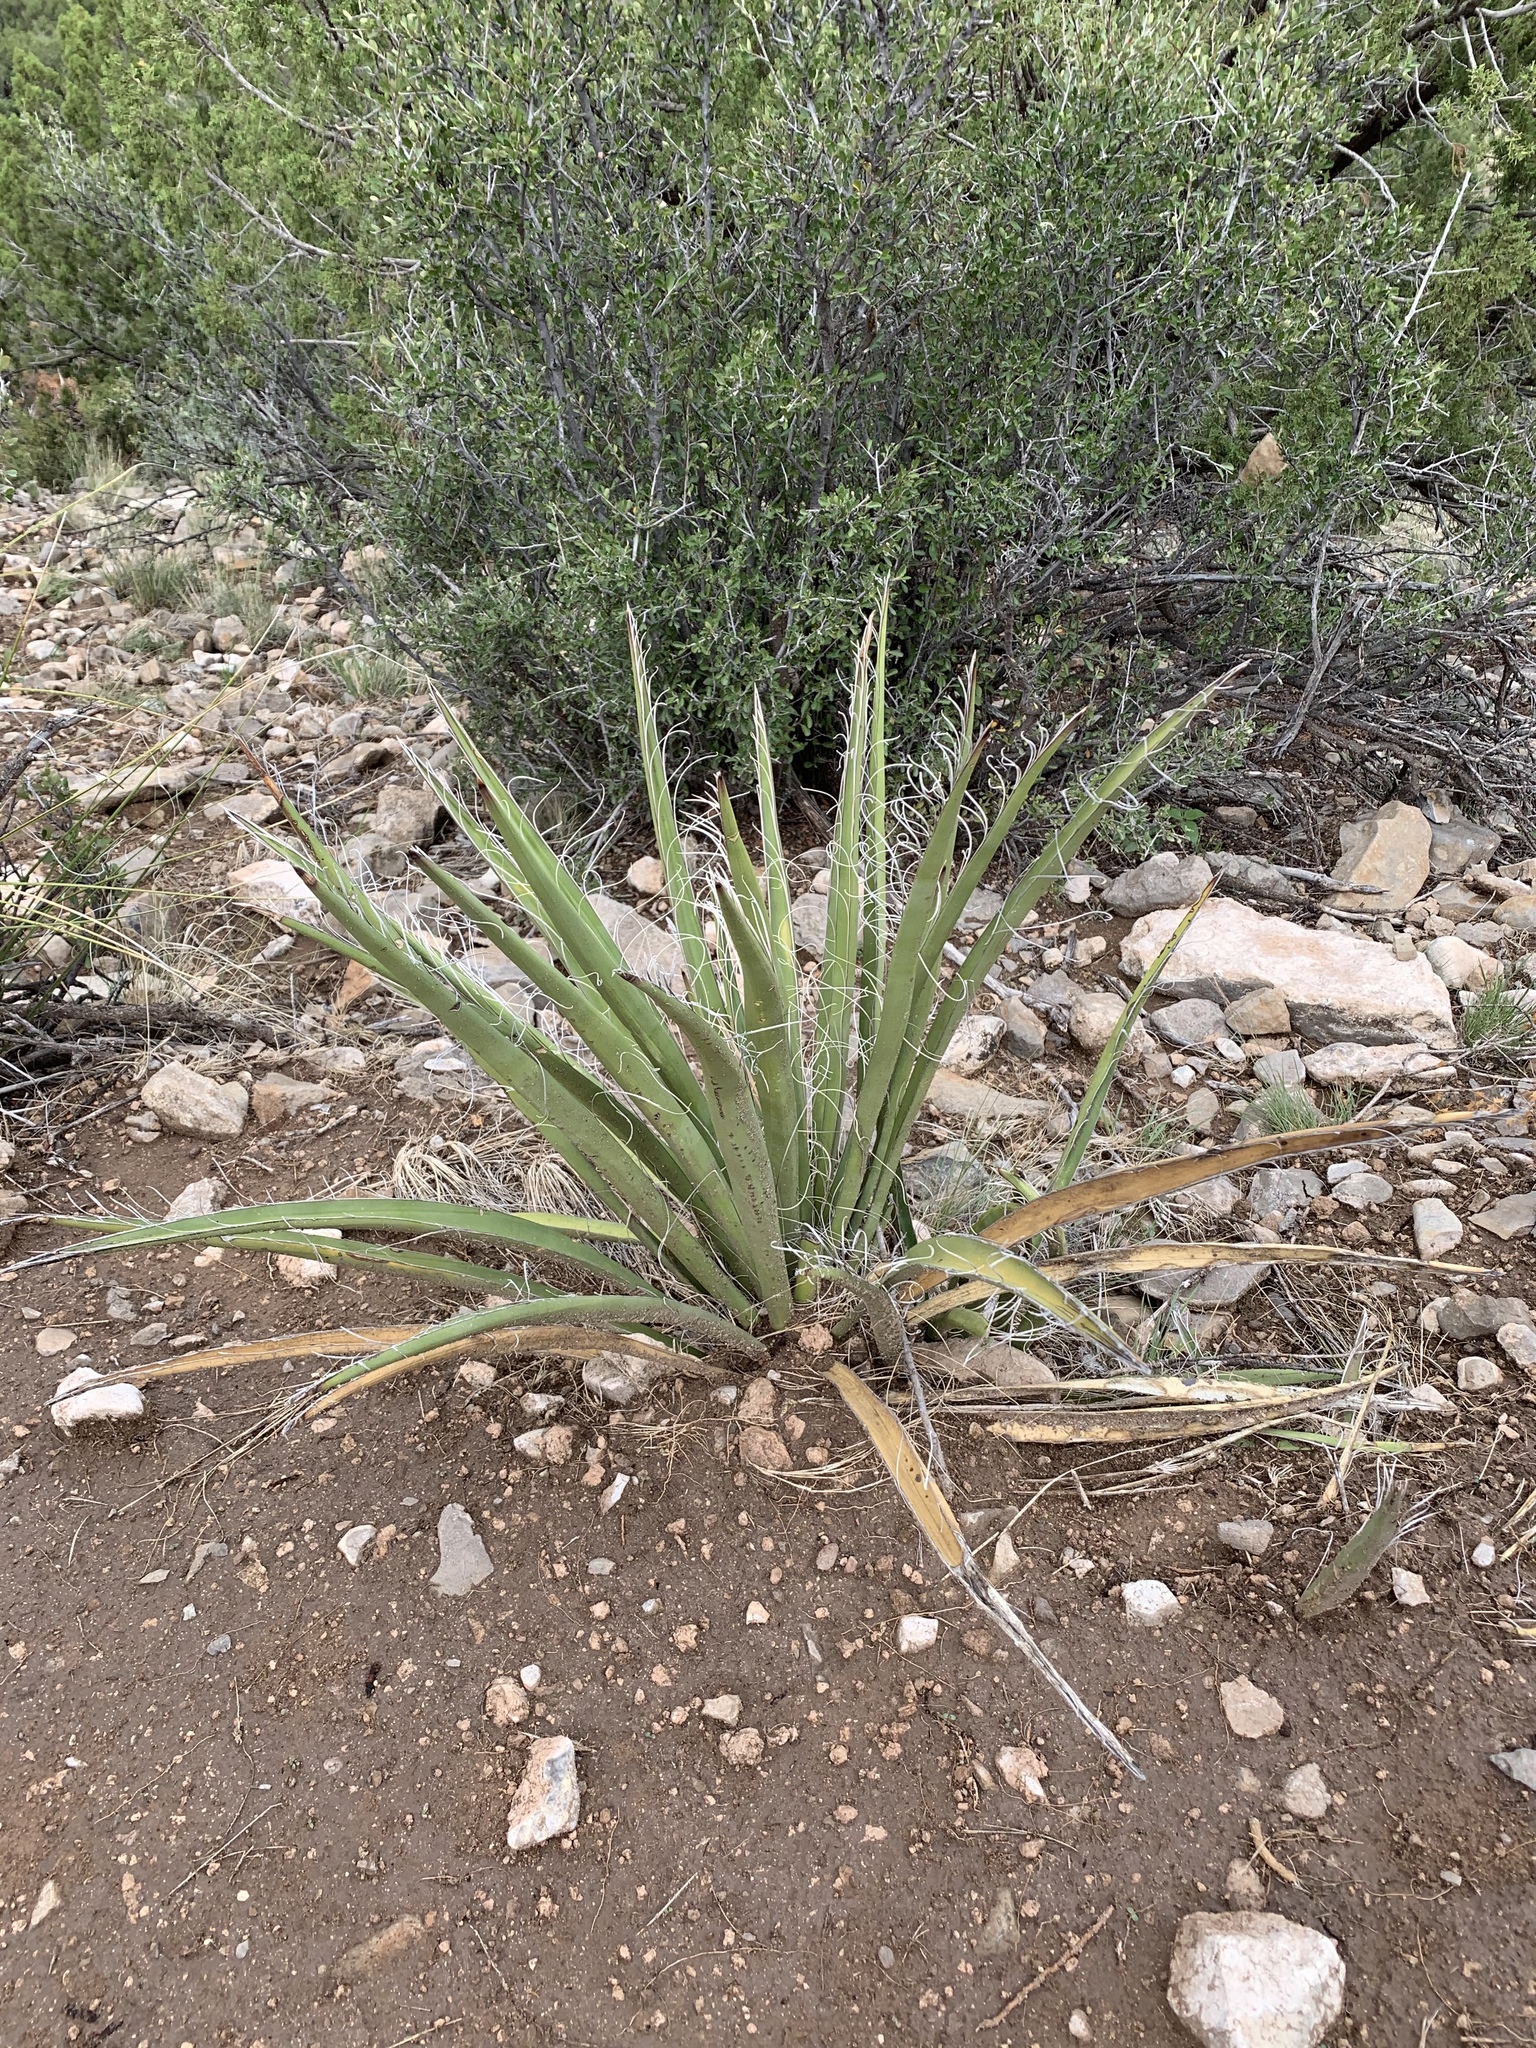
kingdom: Plantae
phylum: Tracheophyta
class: Liliopsida
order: Asparagales
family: Asparagaceae
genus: Yucca
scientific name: Yucca baccata
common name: Banana yucca
